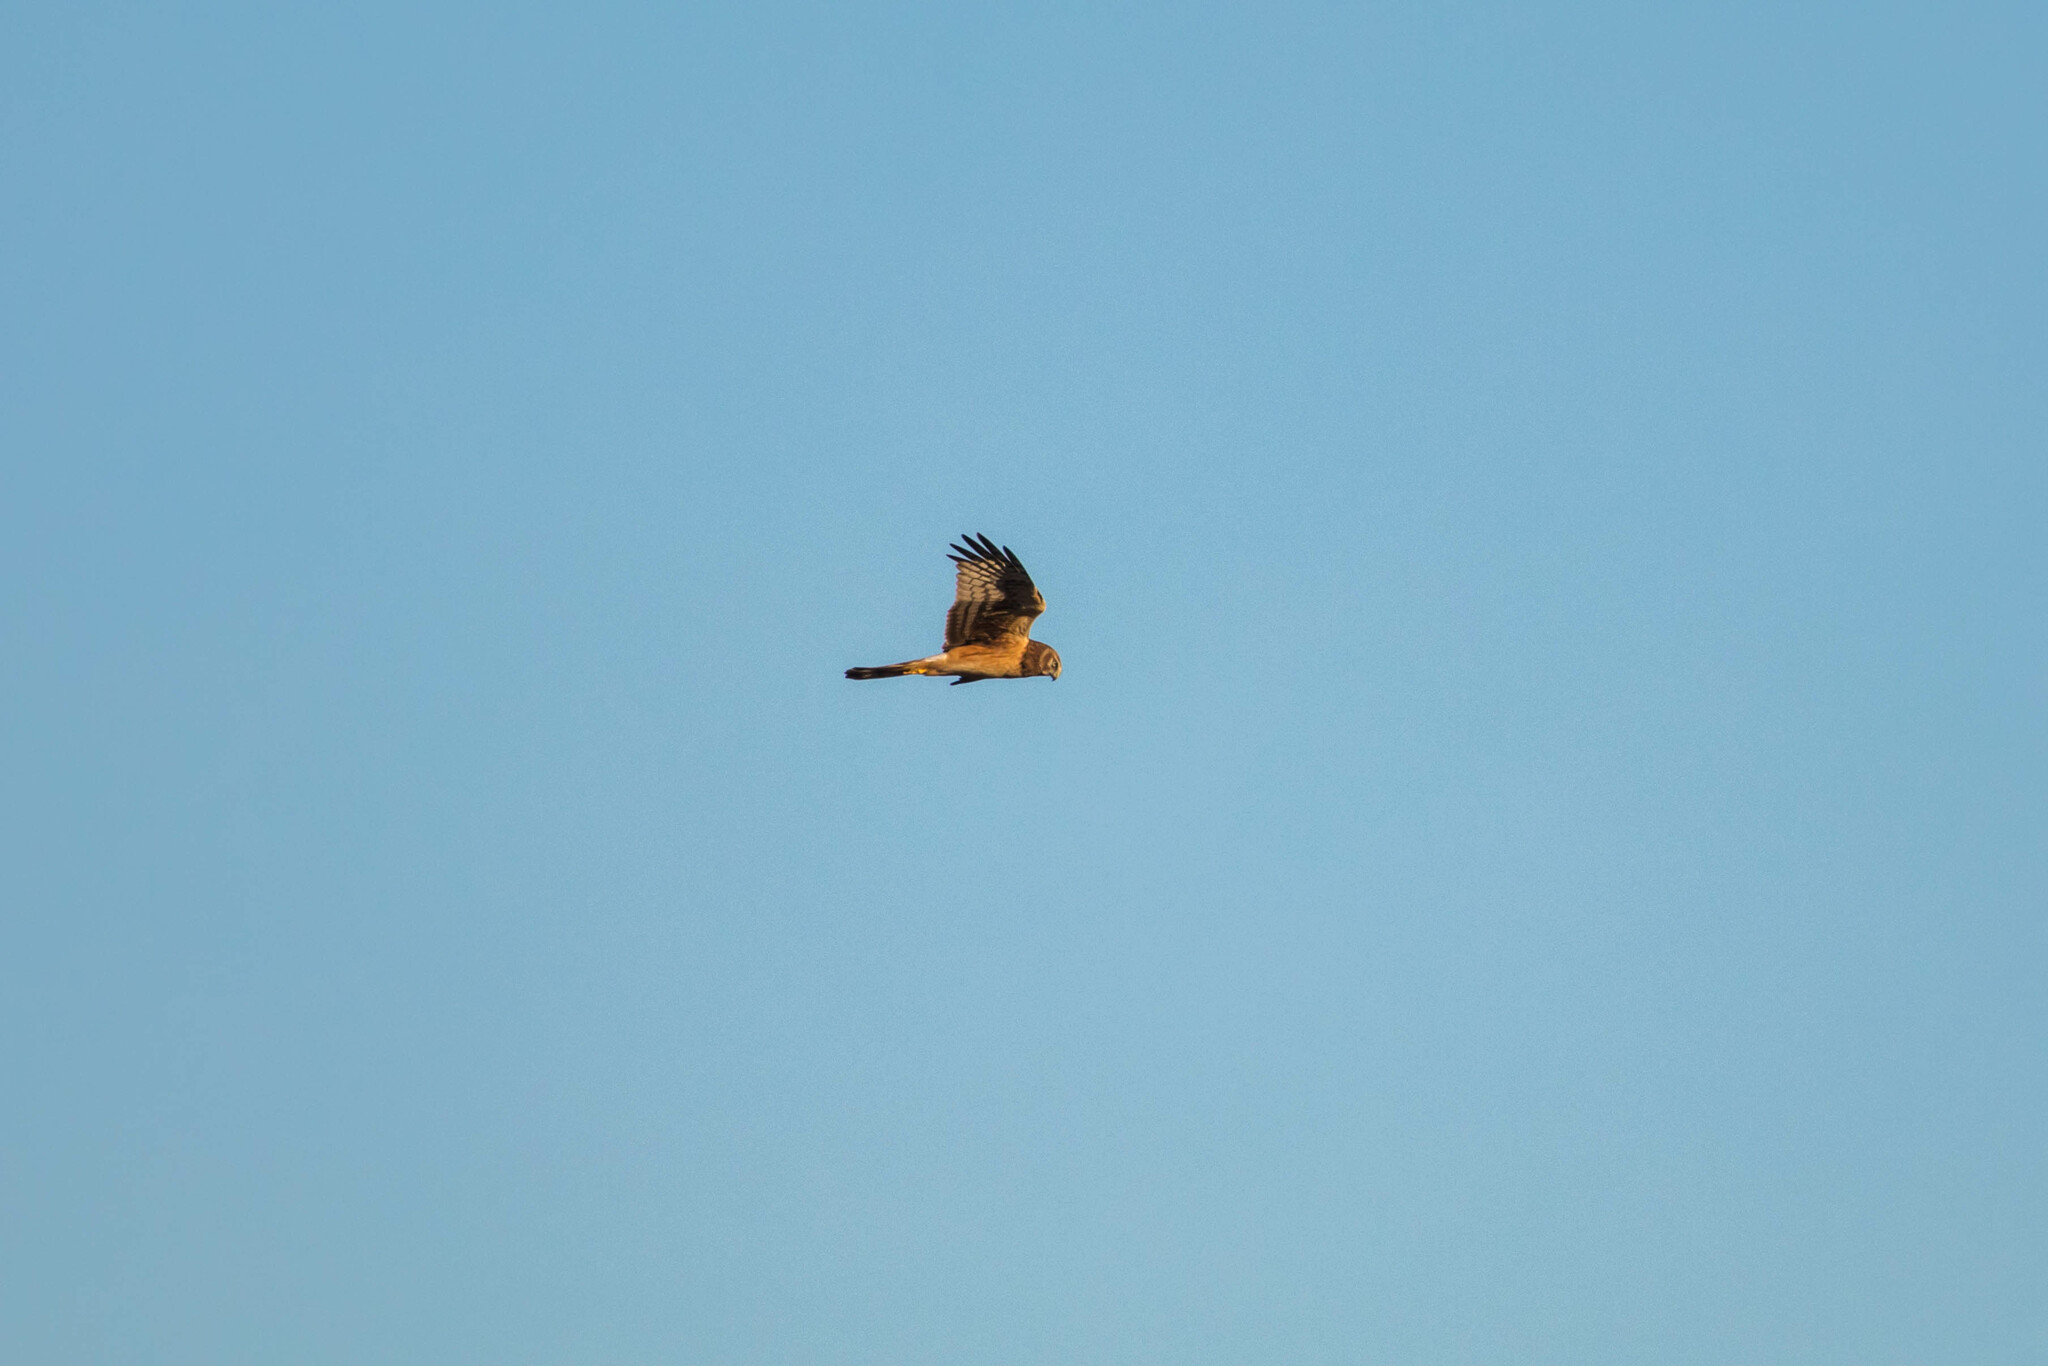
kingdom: Animalia
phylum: Chordata
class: Aves
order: Accipitriformes
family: Accipitridae
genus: Circus
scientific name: Circus cyaneus
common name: Hen harrier
